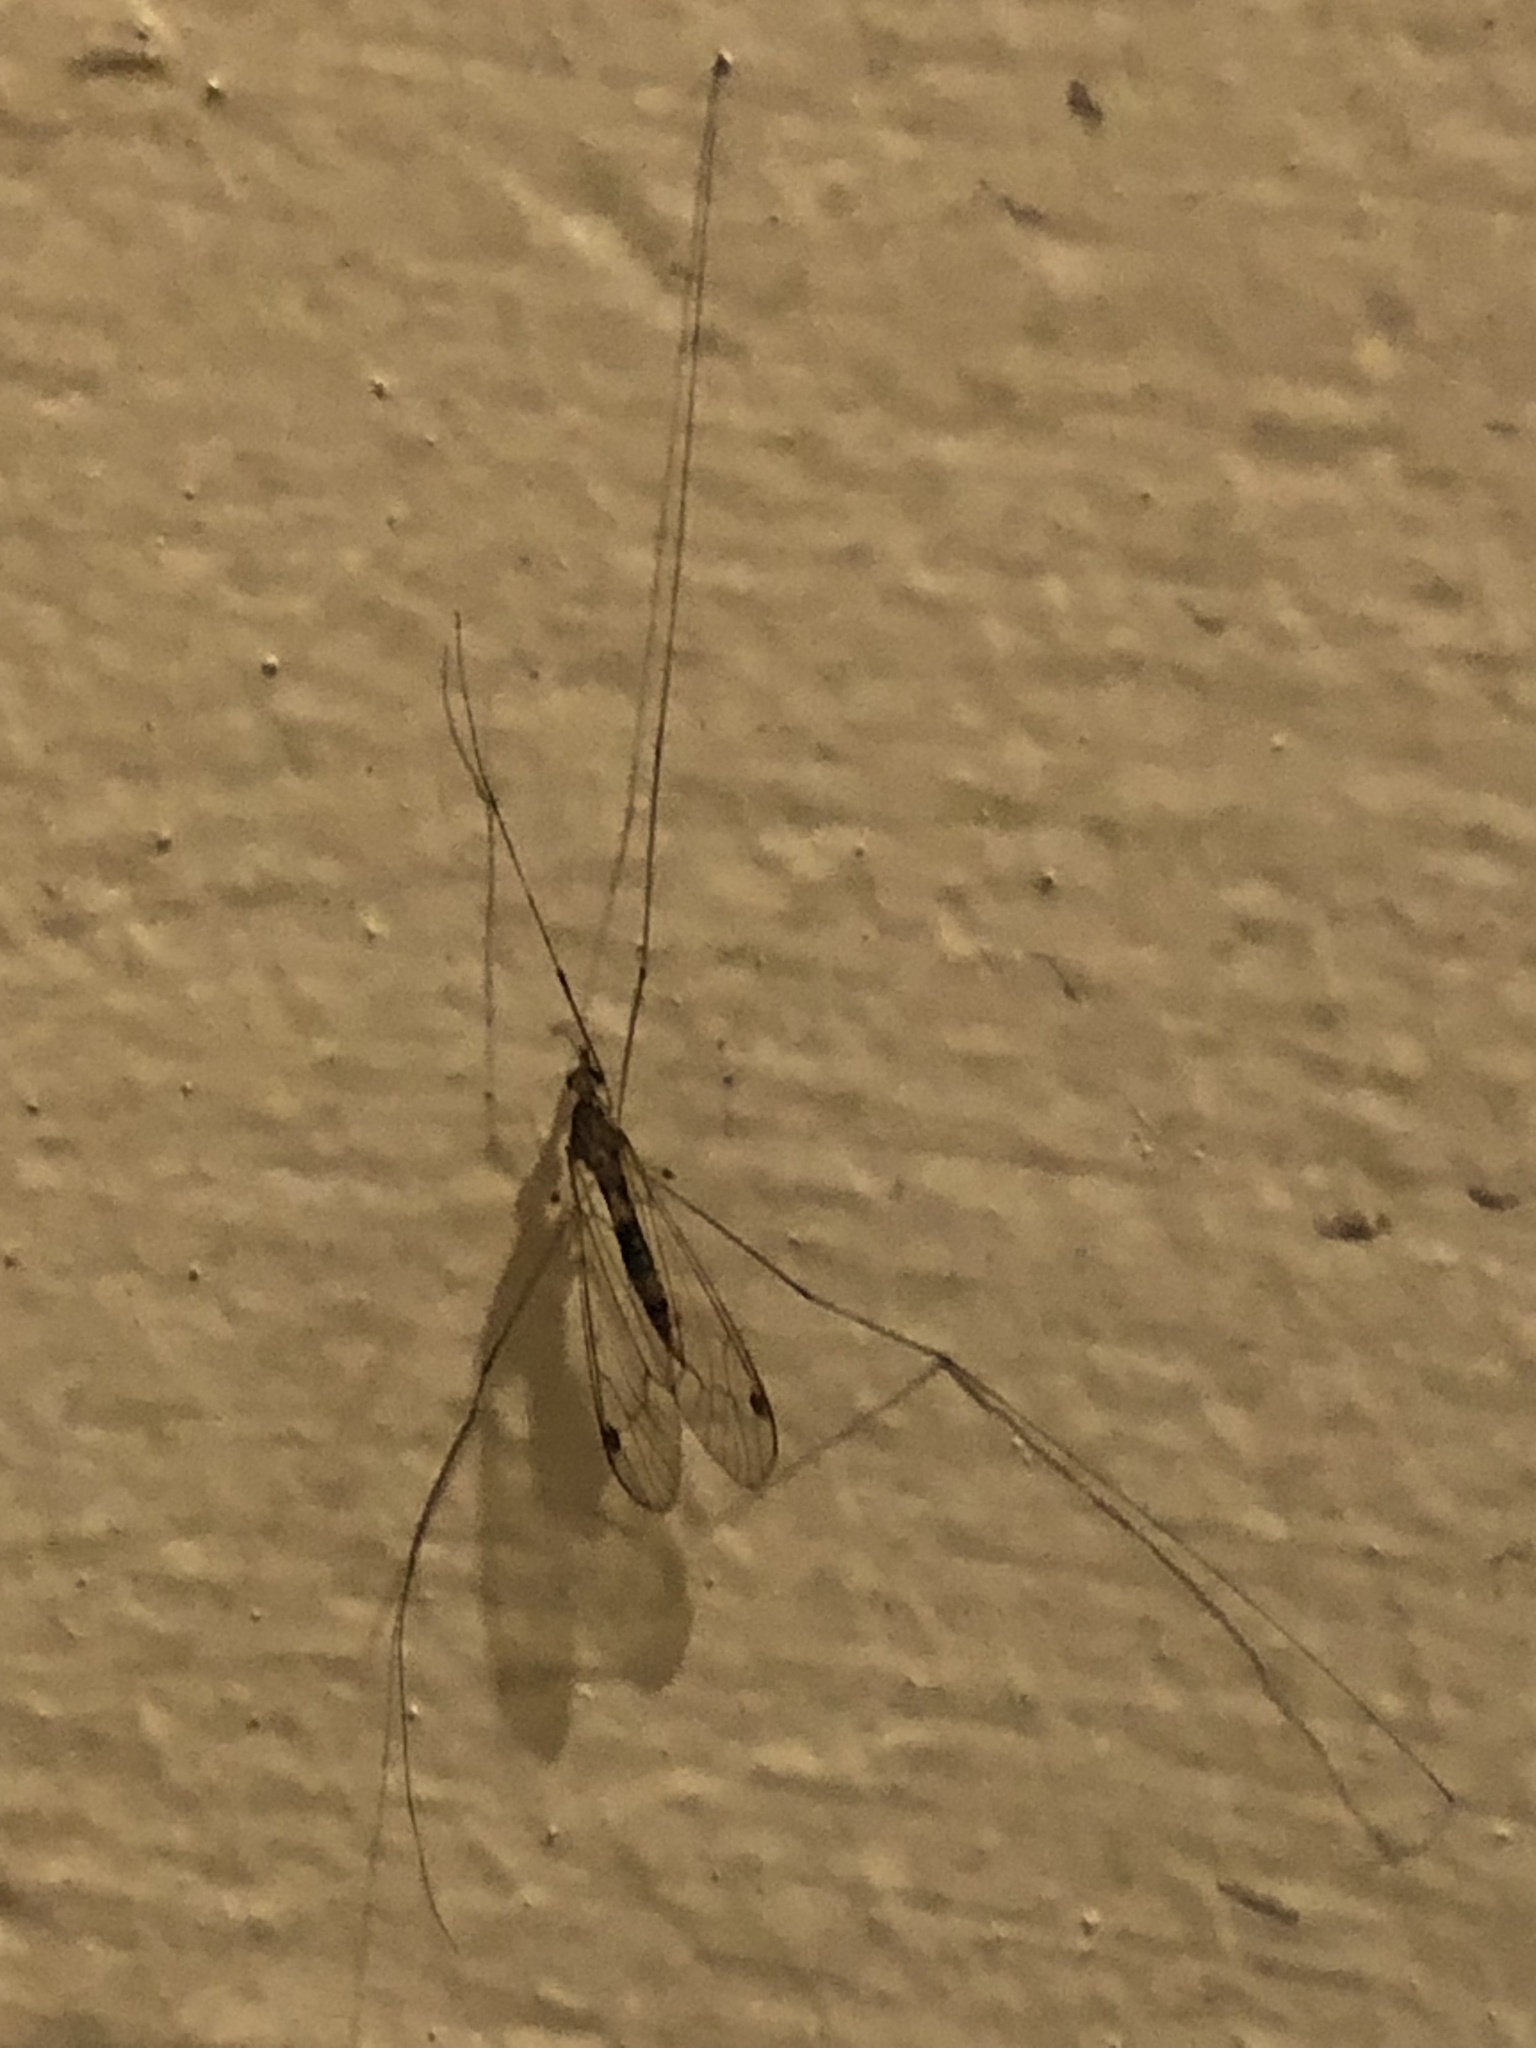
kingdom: Animalia
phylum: Arthropoda
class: Insecta
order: Diptera
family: Tipulidae
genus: Maekistocera
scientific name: Maekistocera longipennis
